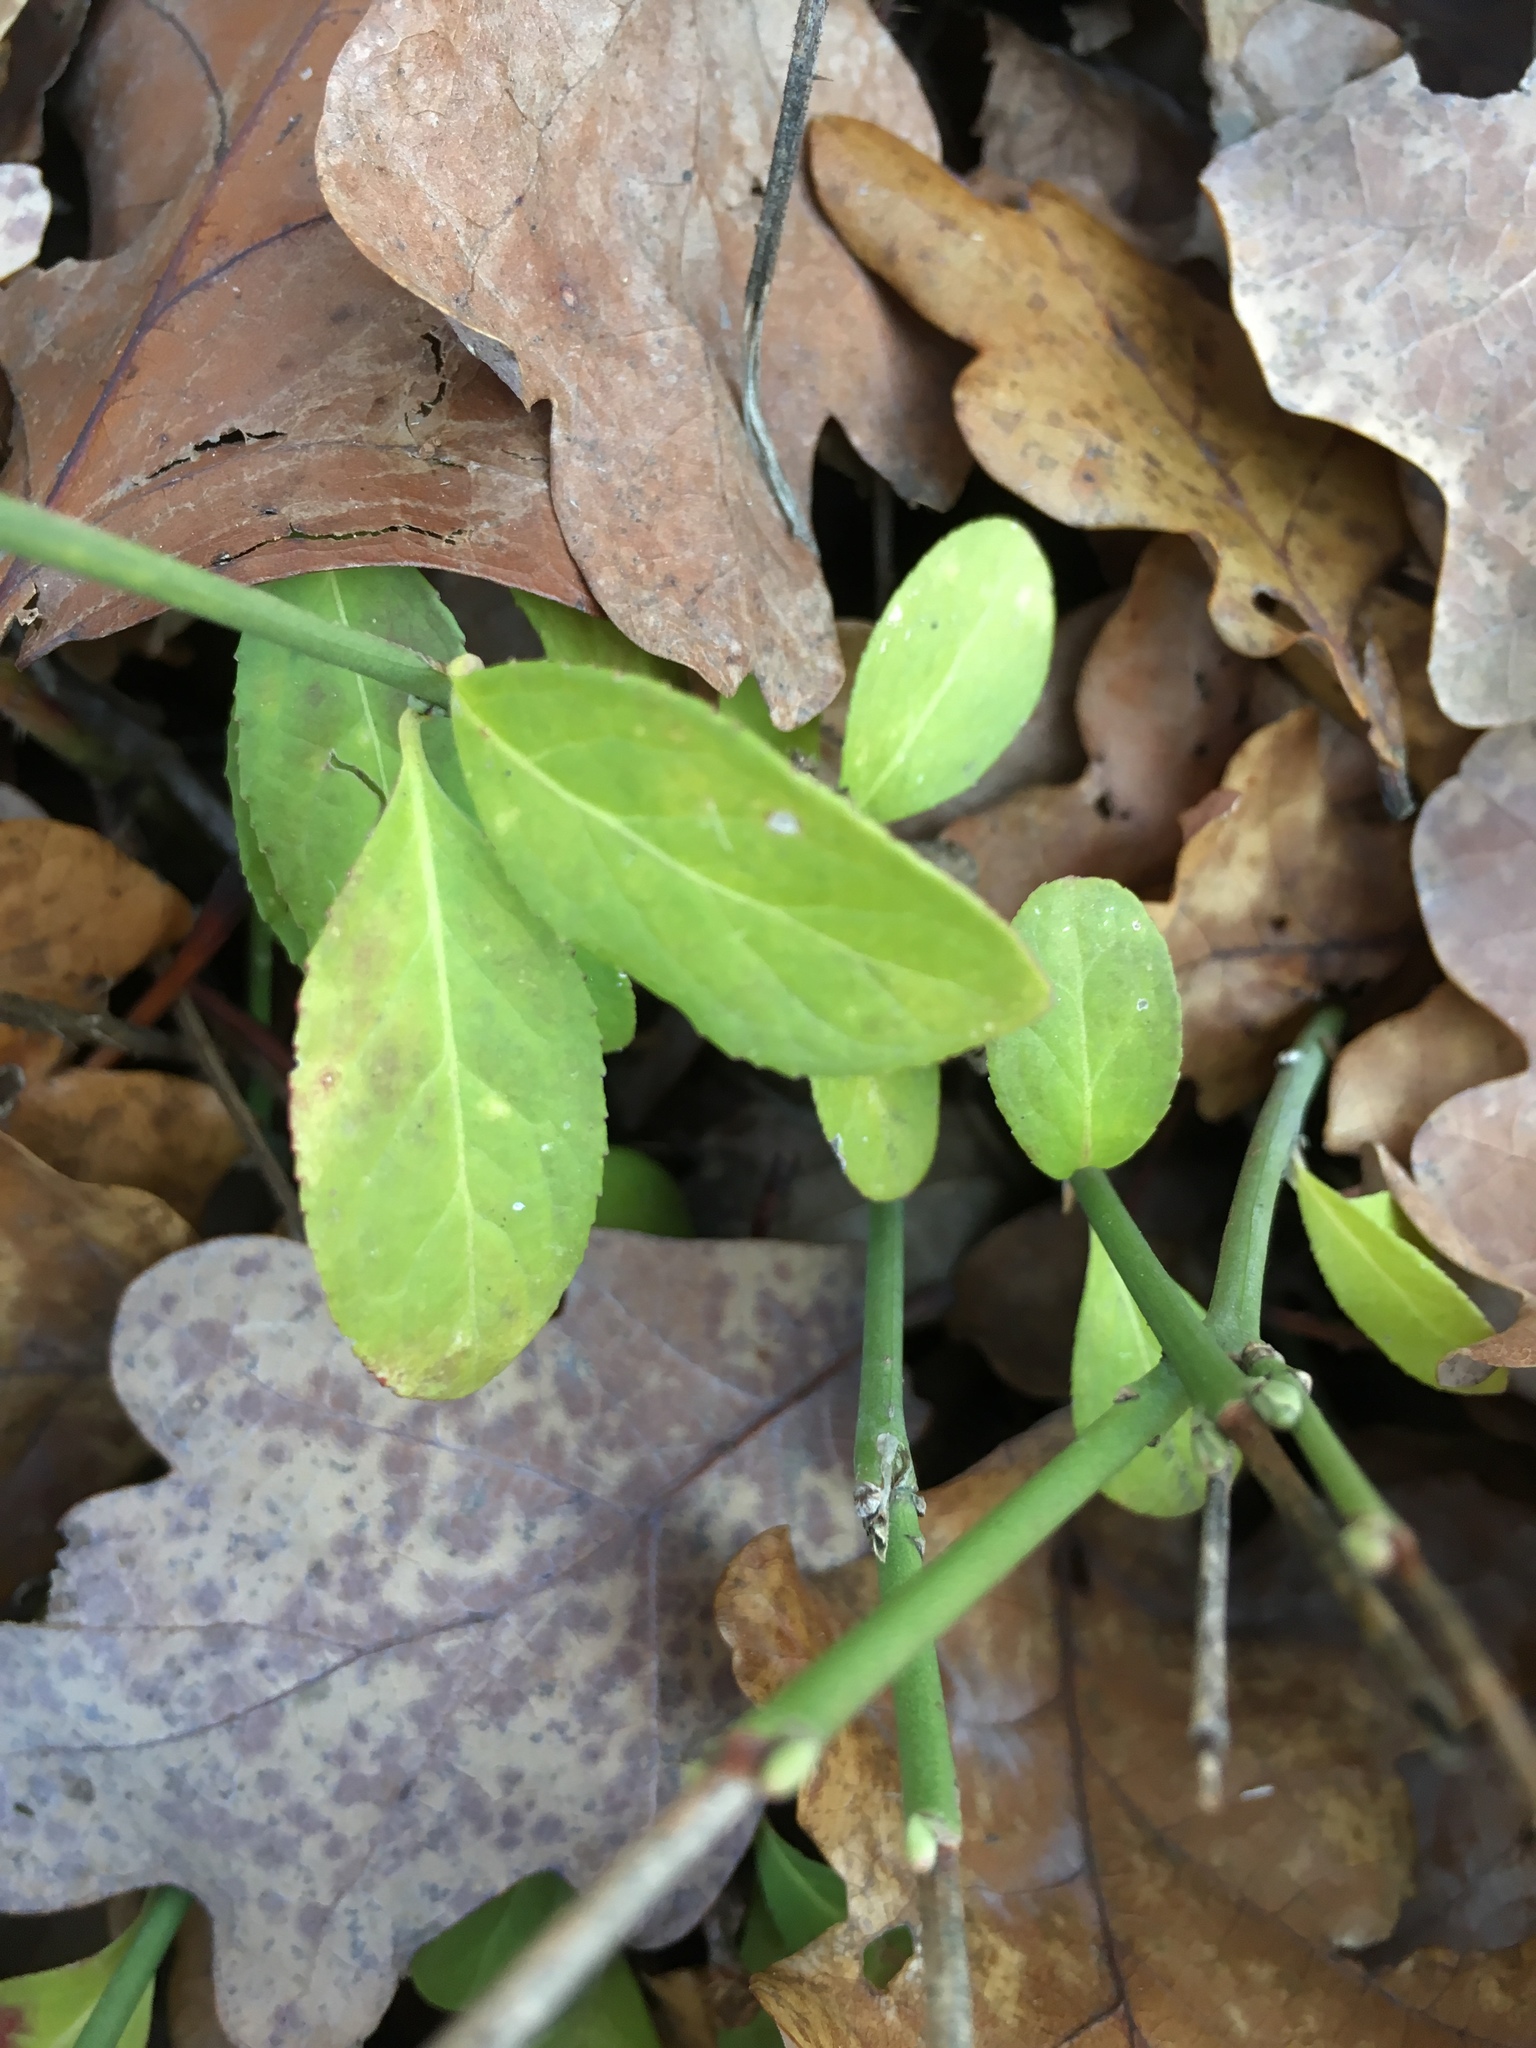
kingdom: Plantae
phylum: Tracheophyta
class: Magnoliopsida
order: Celastrales
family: Celastraceae
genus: Euonymus
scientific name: Euonymus europaeus
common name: Spindle
